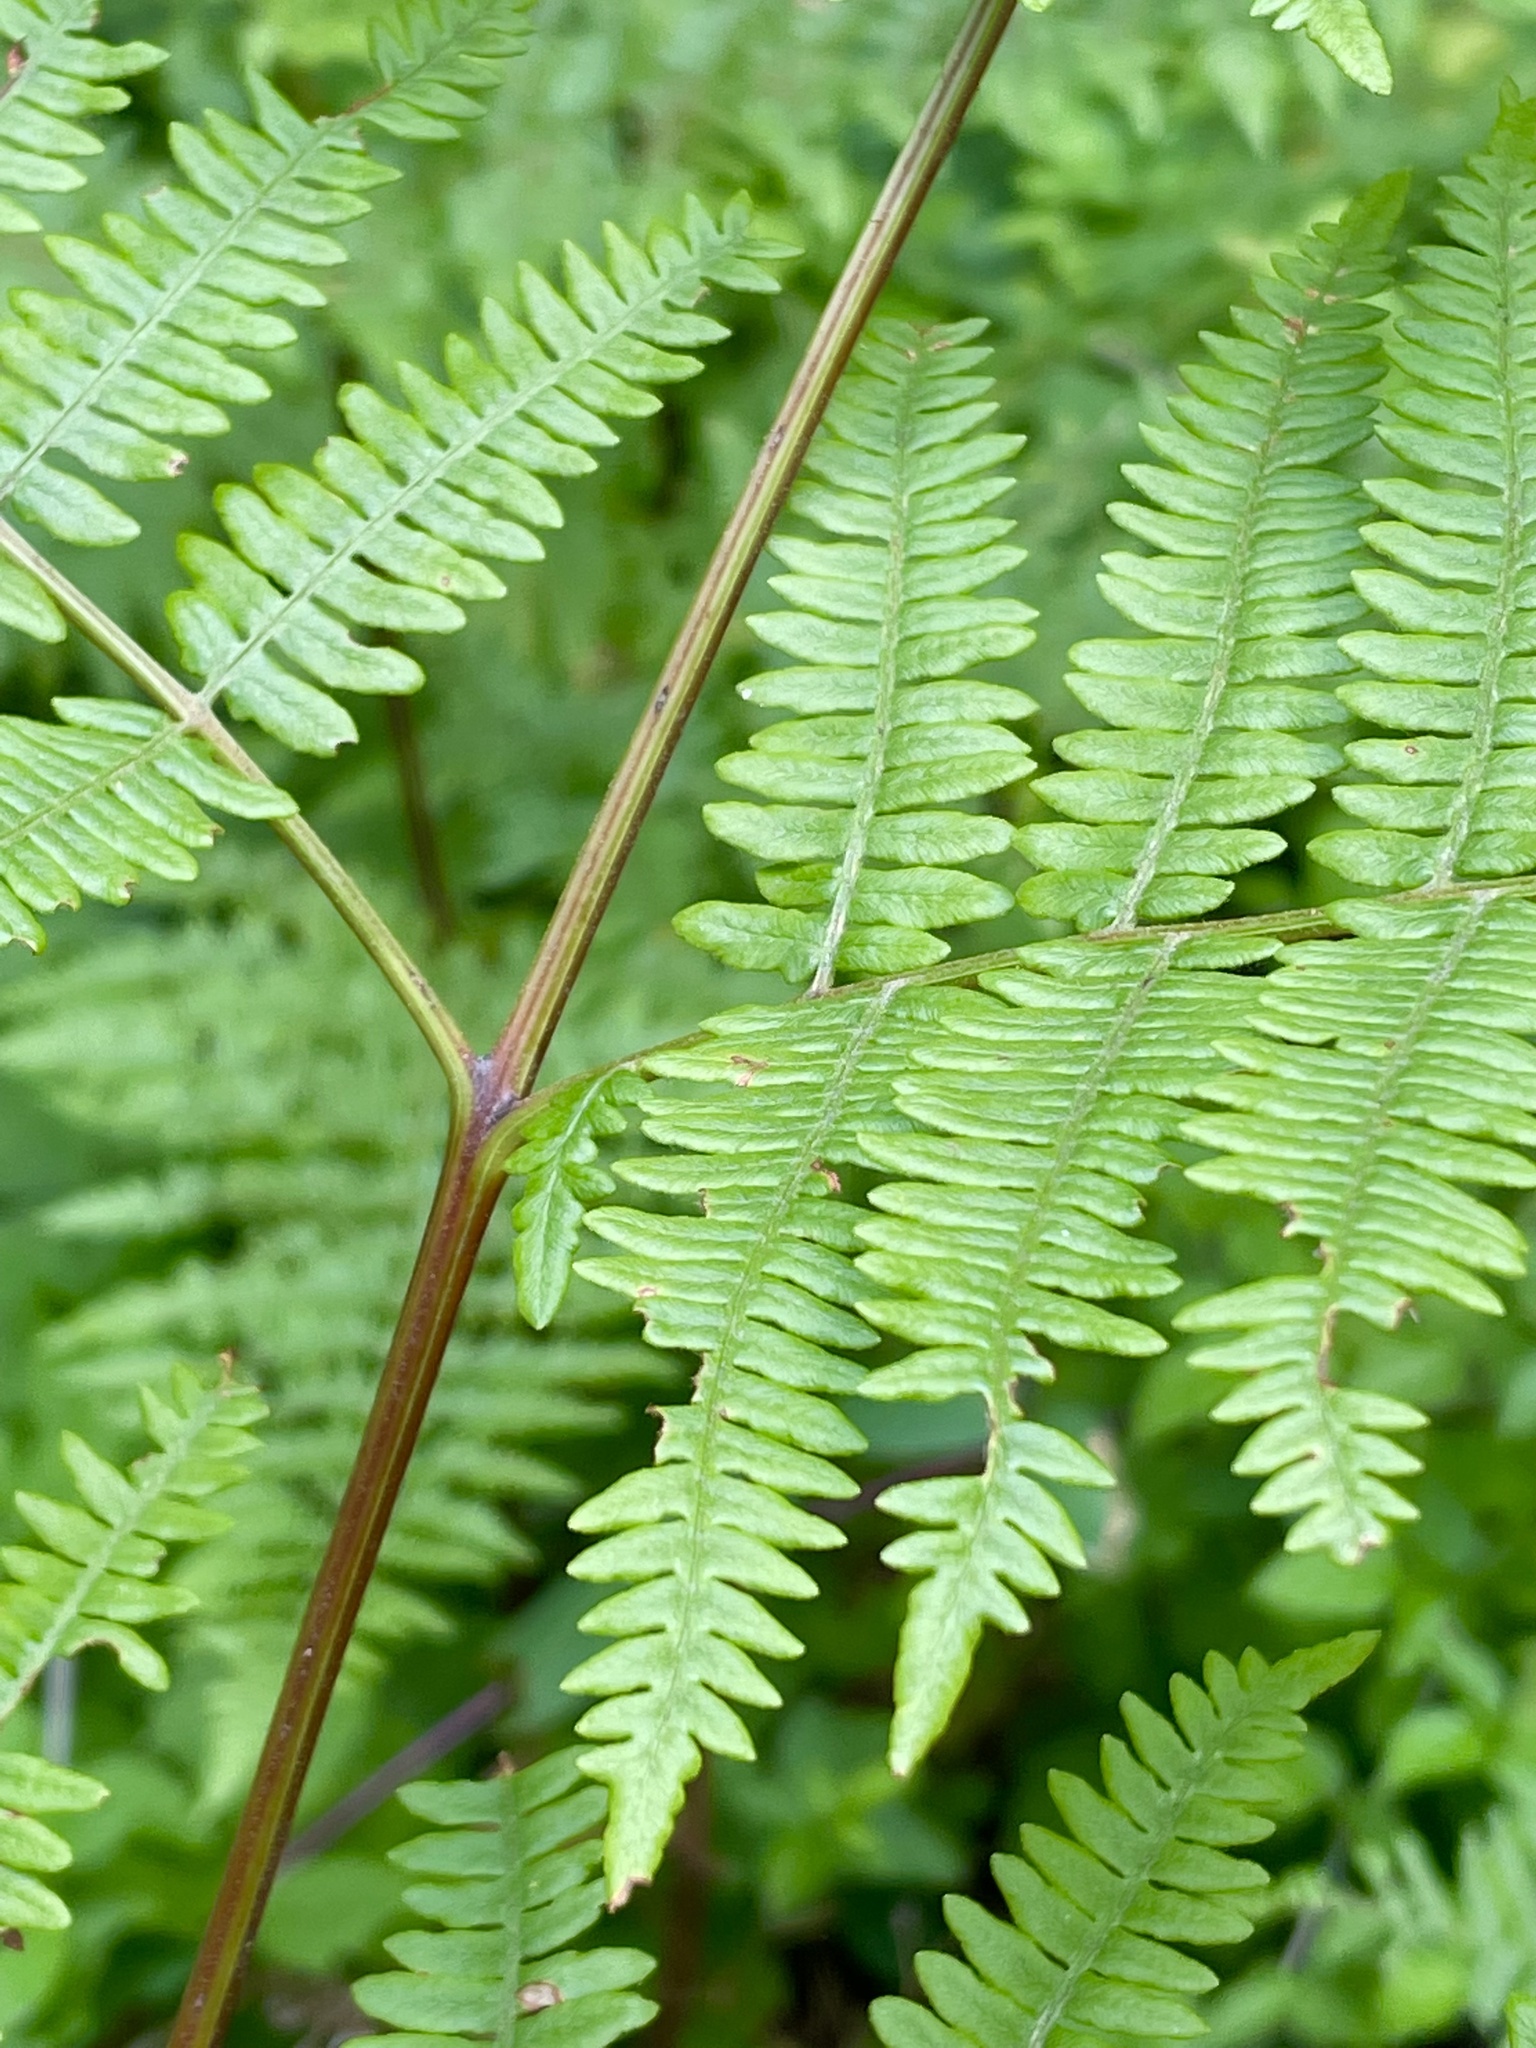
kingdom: Plantae
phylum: Tracheophyta
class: Polypodiopsida
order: Polypodiales
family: Dennstaedtiaceae
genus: Pteridium
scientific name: Pteridium aquilinum
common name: Bracken
